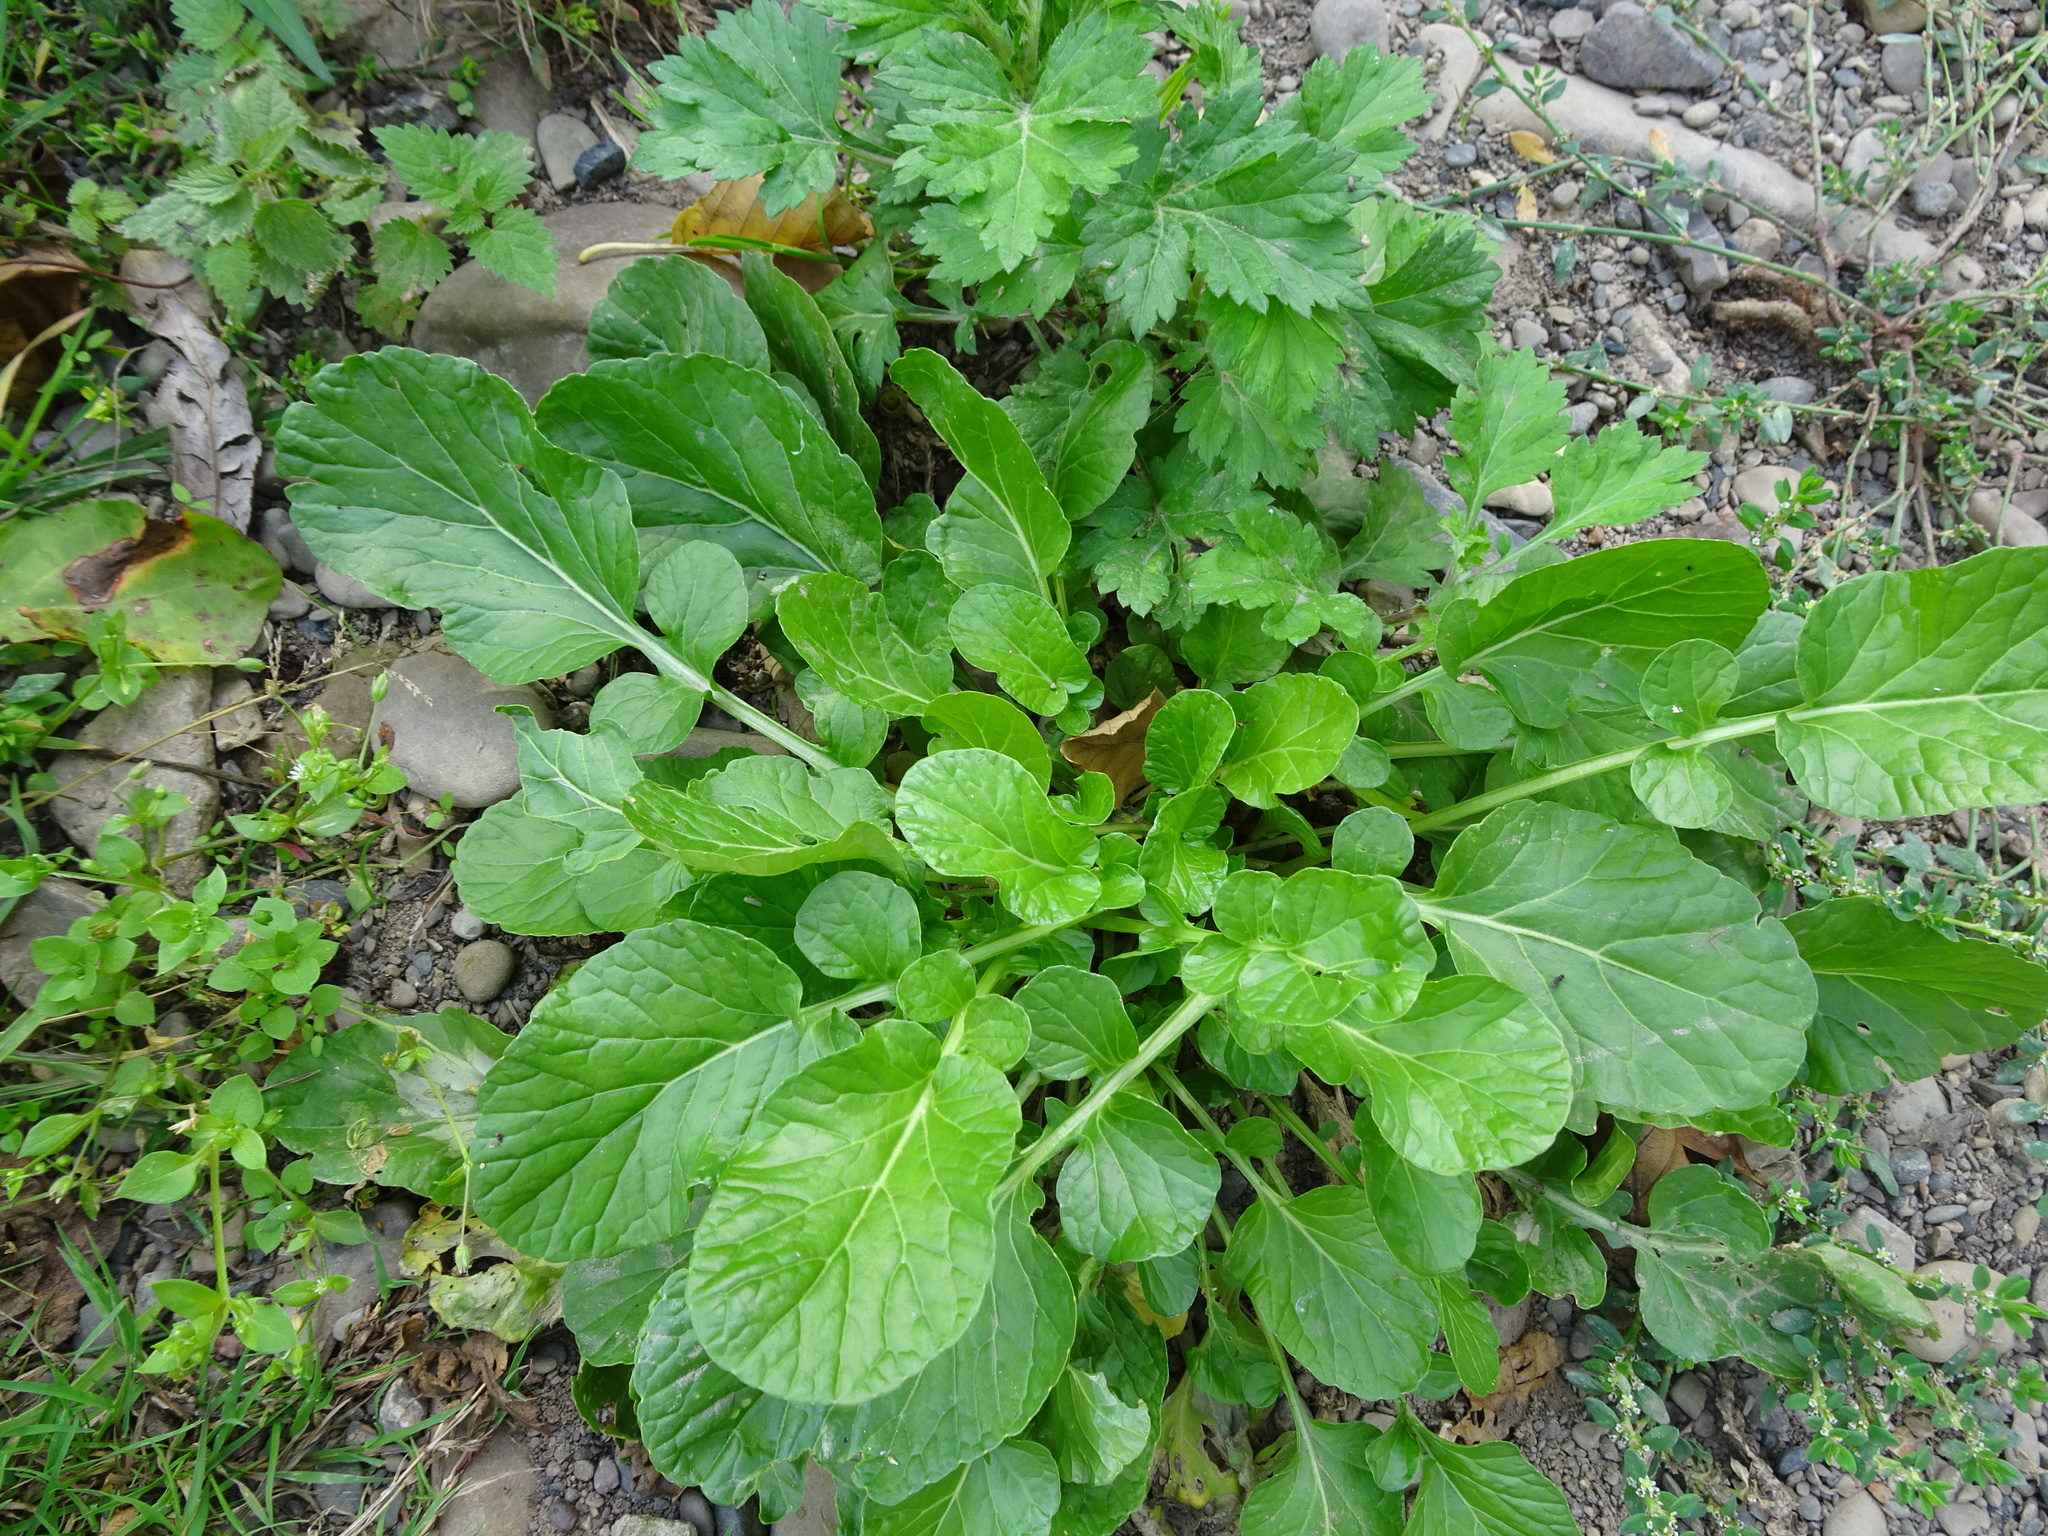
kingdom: Plantae
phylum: Tracheophyta
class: Magnoliopsida
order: Brassicales
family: Brassicaceae
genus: Barbarea
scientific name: Barbarea vulgaris
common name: Cressy-greens
